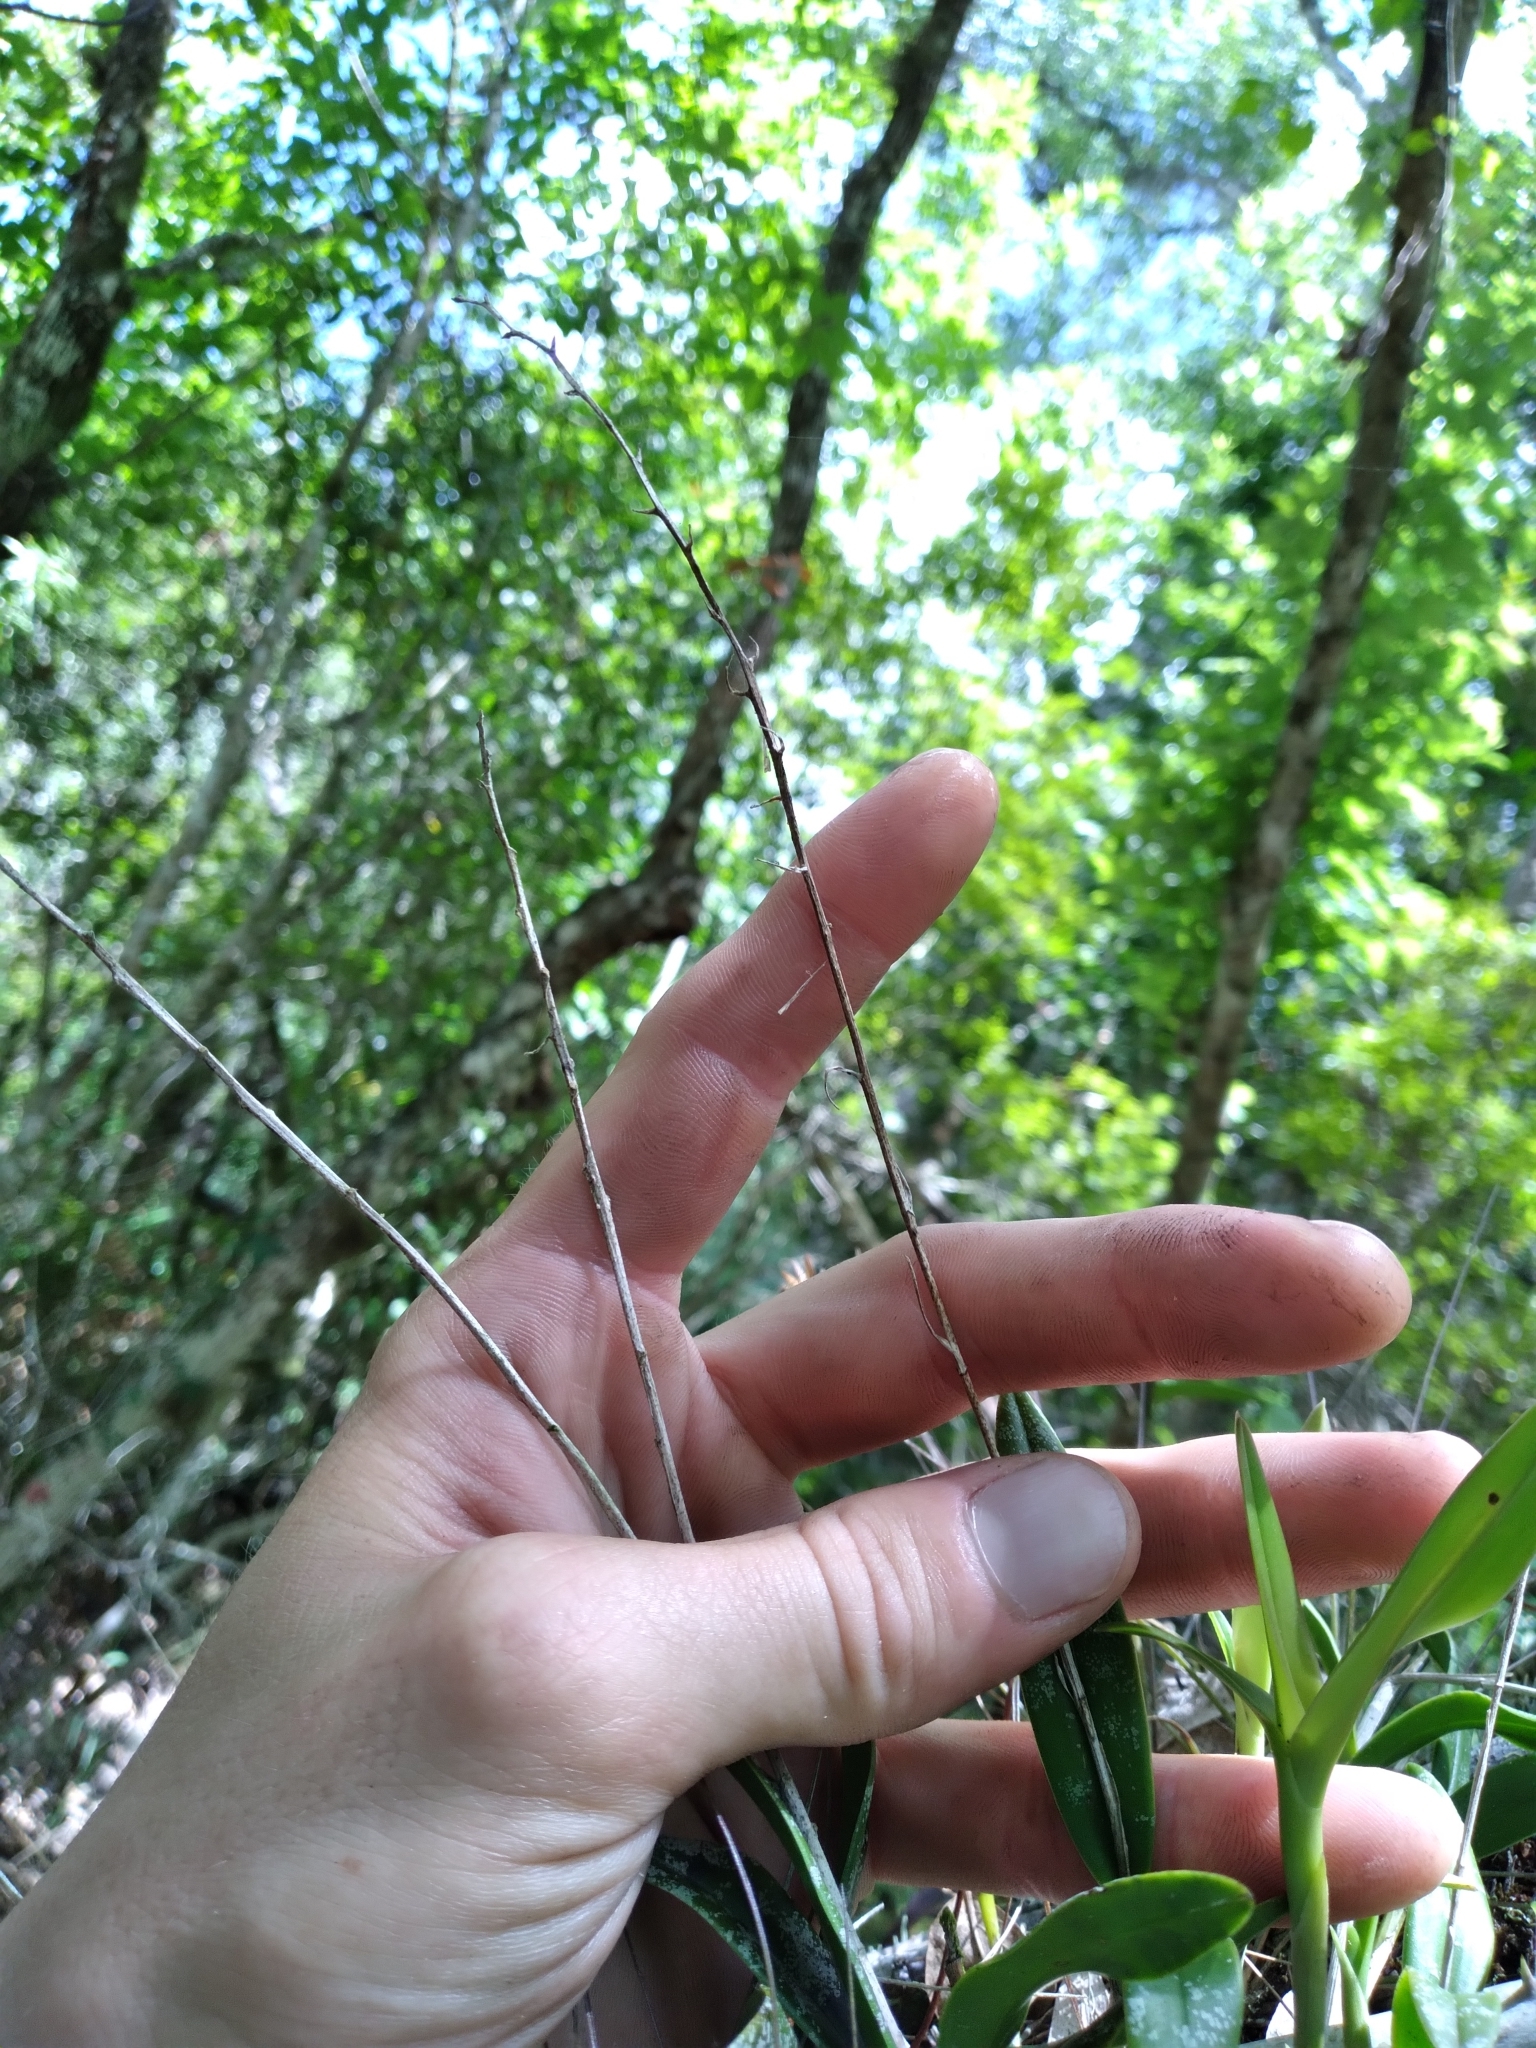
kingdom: Plantae
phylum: Tracheophyta
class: Liliopsida
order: Asparagales
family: Orchidaceae
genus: Epidendrum
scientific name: Epidendrum conopseum
